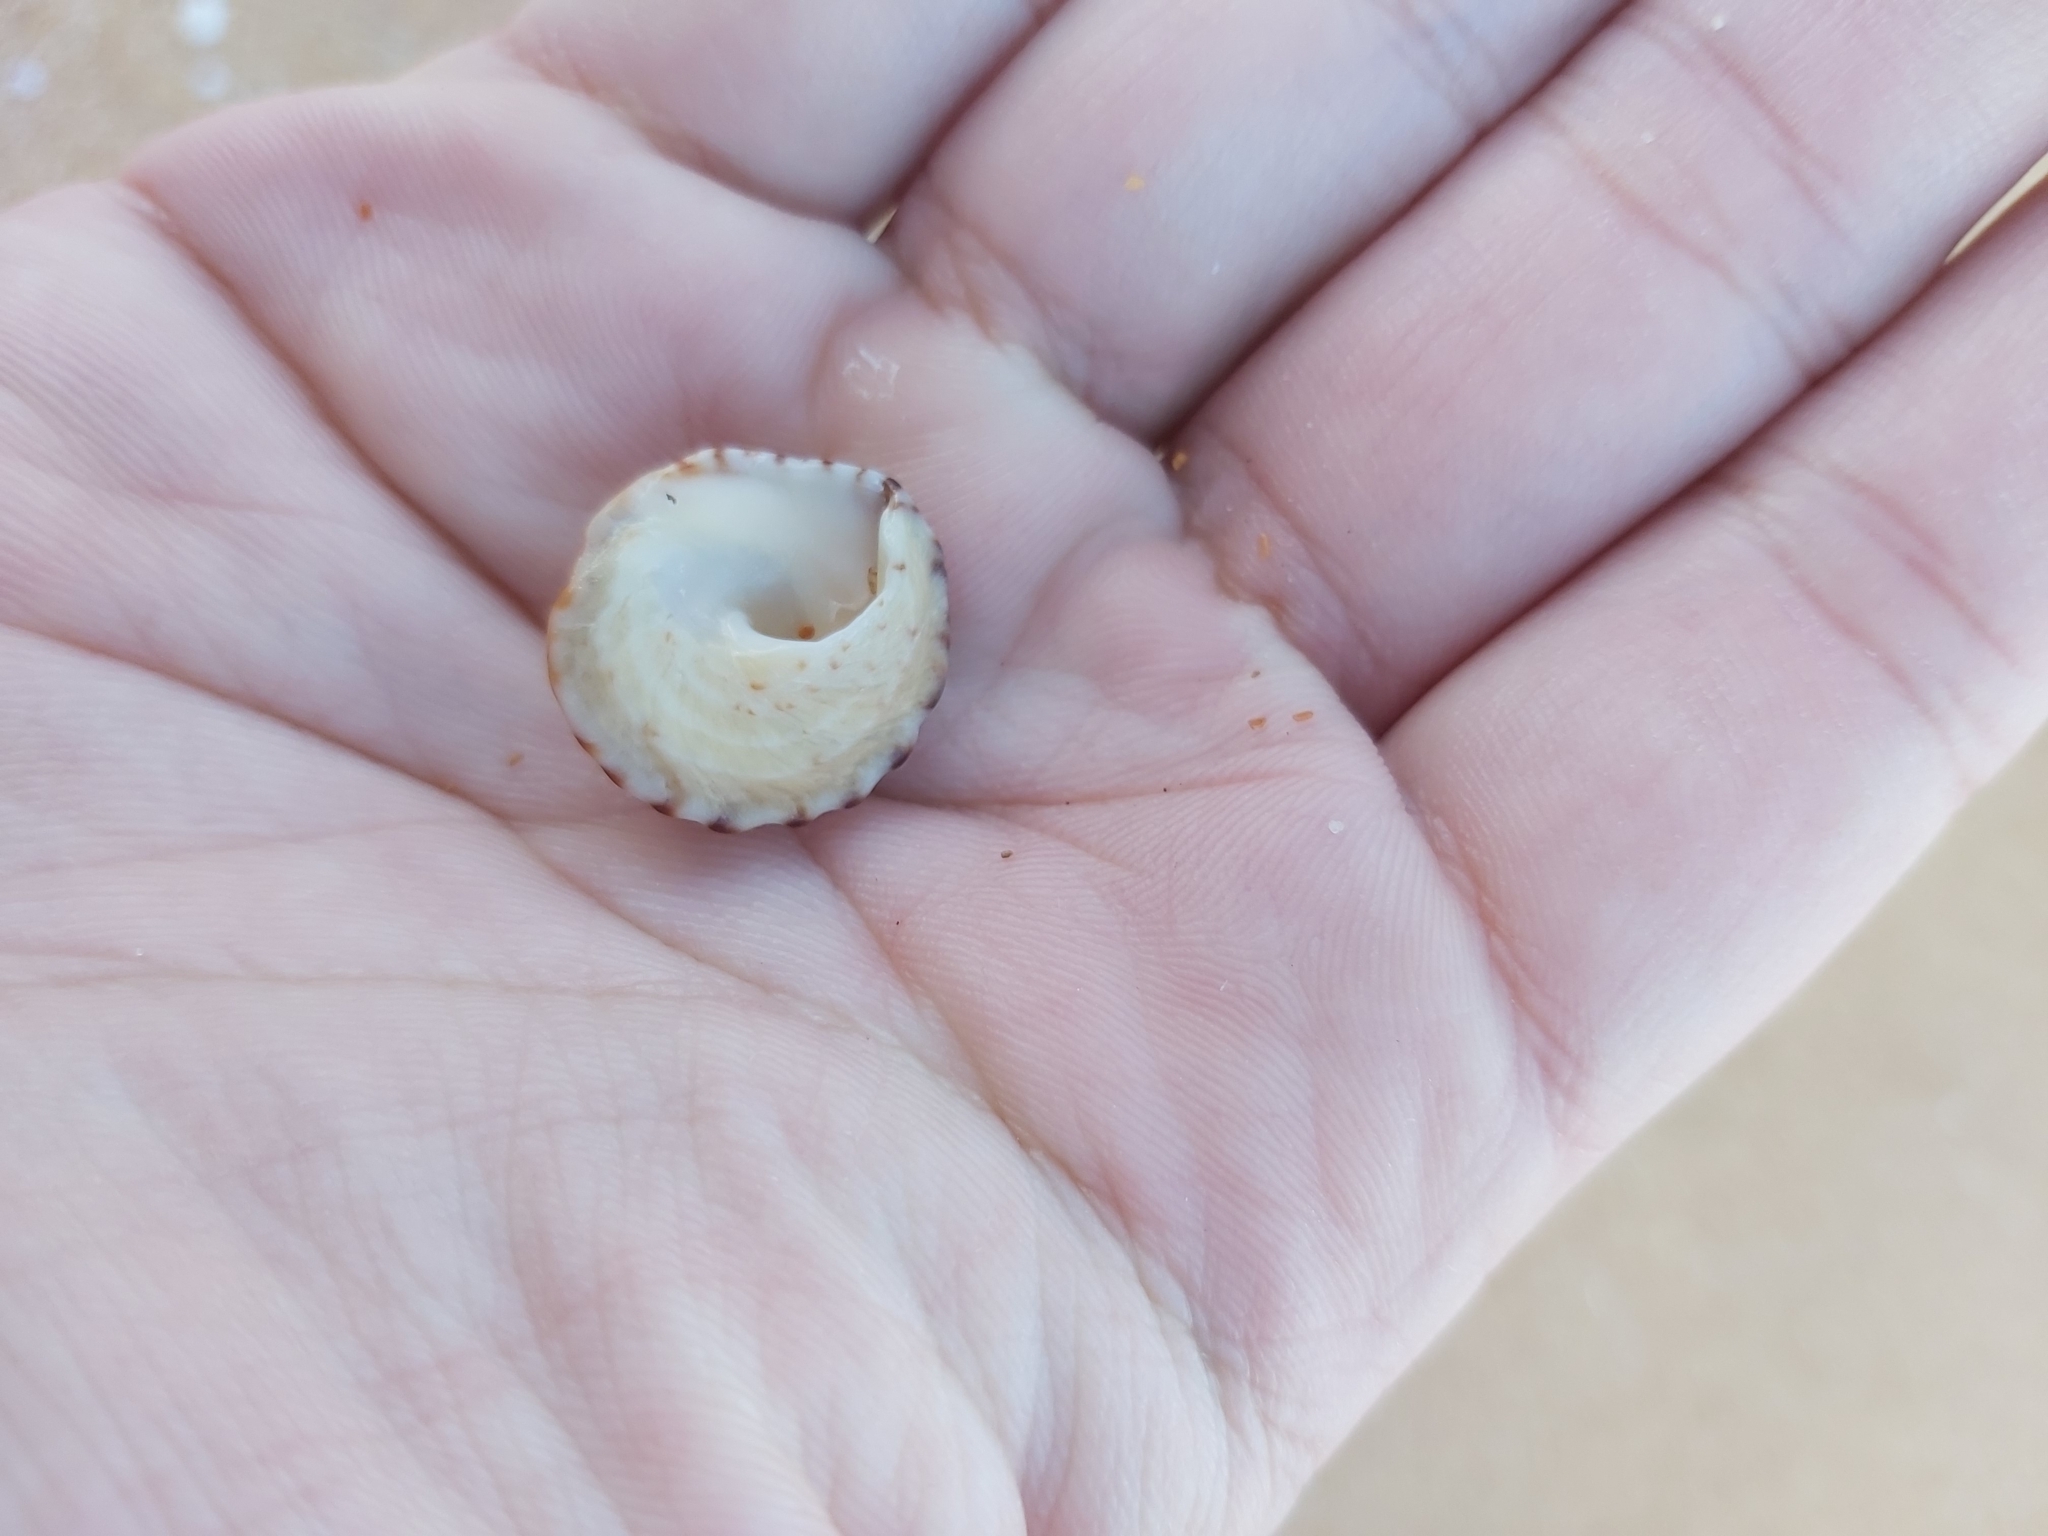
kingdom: Animalia
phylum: Mollusca
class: Gastropoda
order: Littorinimorpha
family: Littorinidae
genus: Bembicium
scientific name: Bembicium nanum
